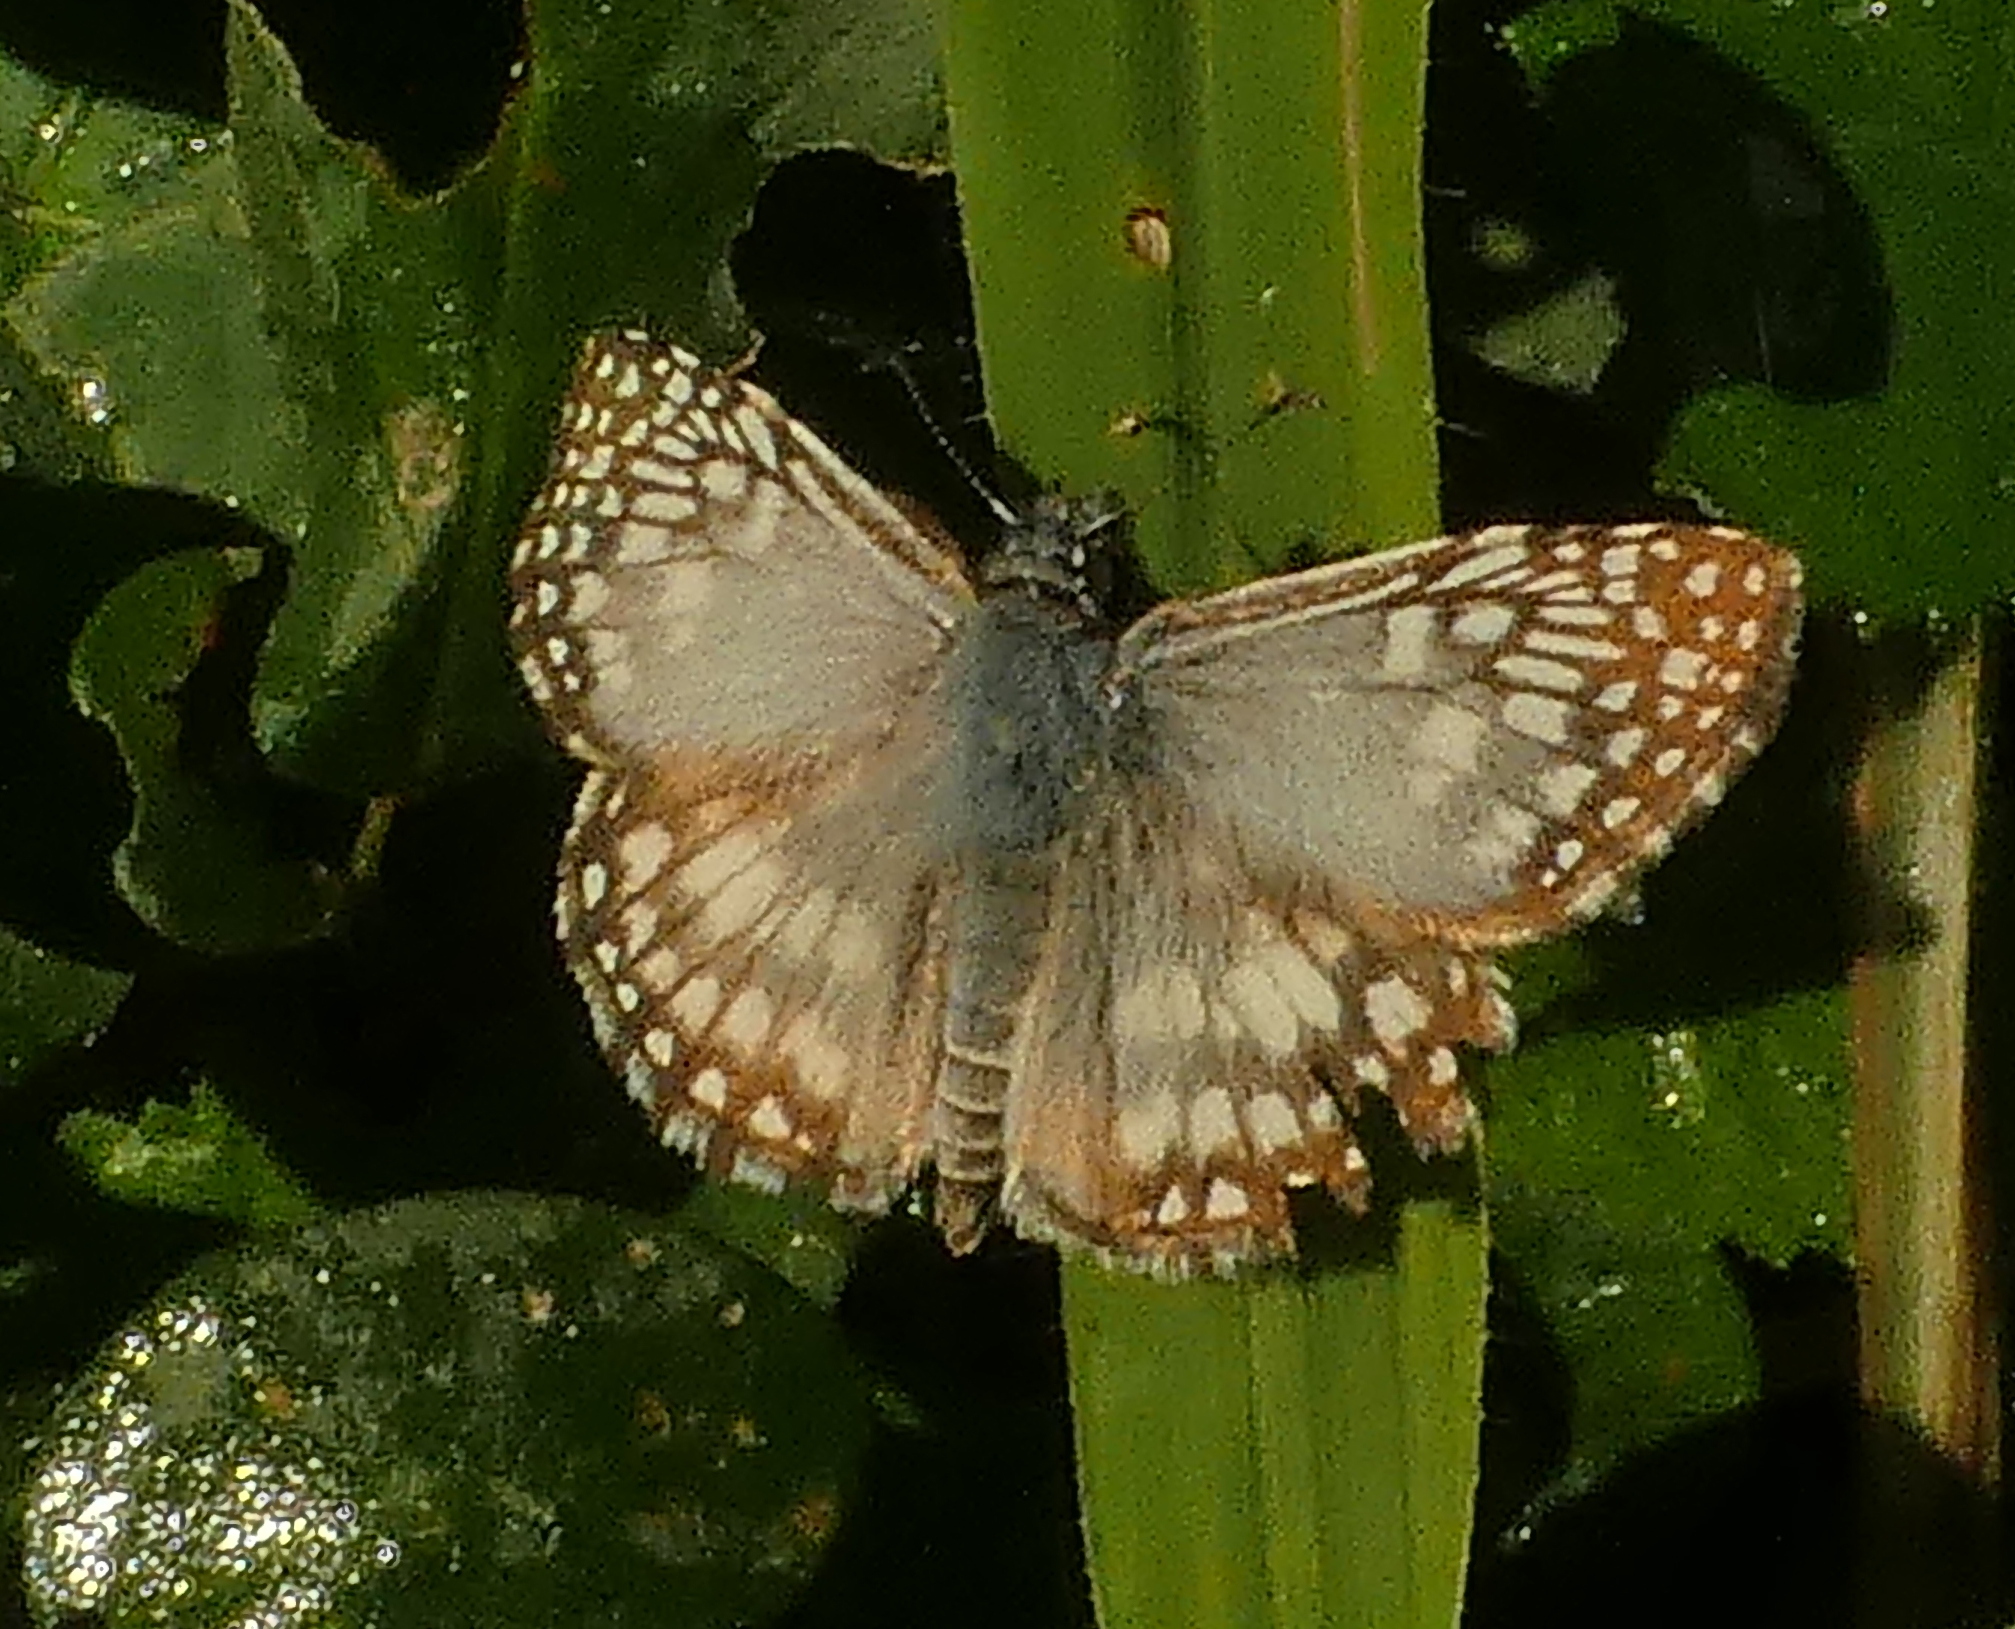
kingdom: Animalia
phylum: Arthropoda
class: Insecta
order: Lepidoptera
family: Hesperiidae
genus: Pyrgus
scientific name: Pyrgus oileus
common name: Tropical checkered-skipper
